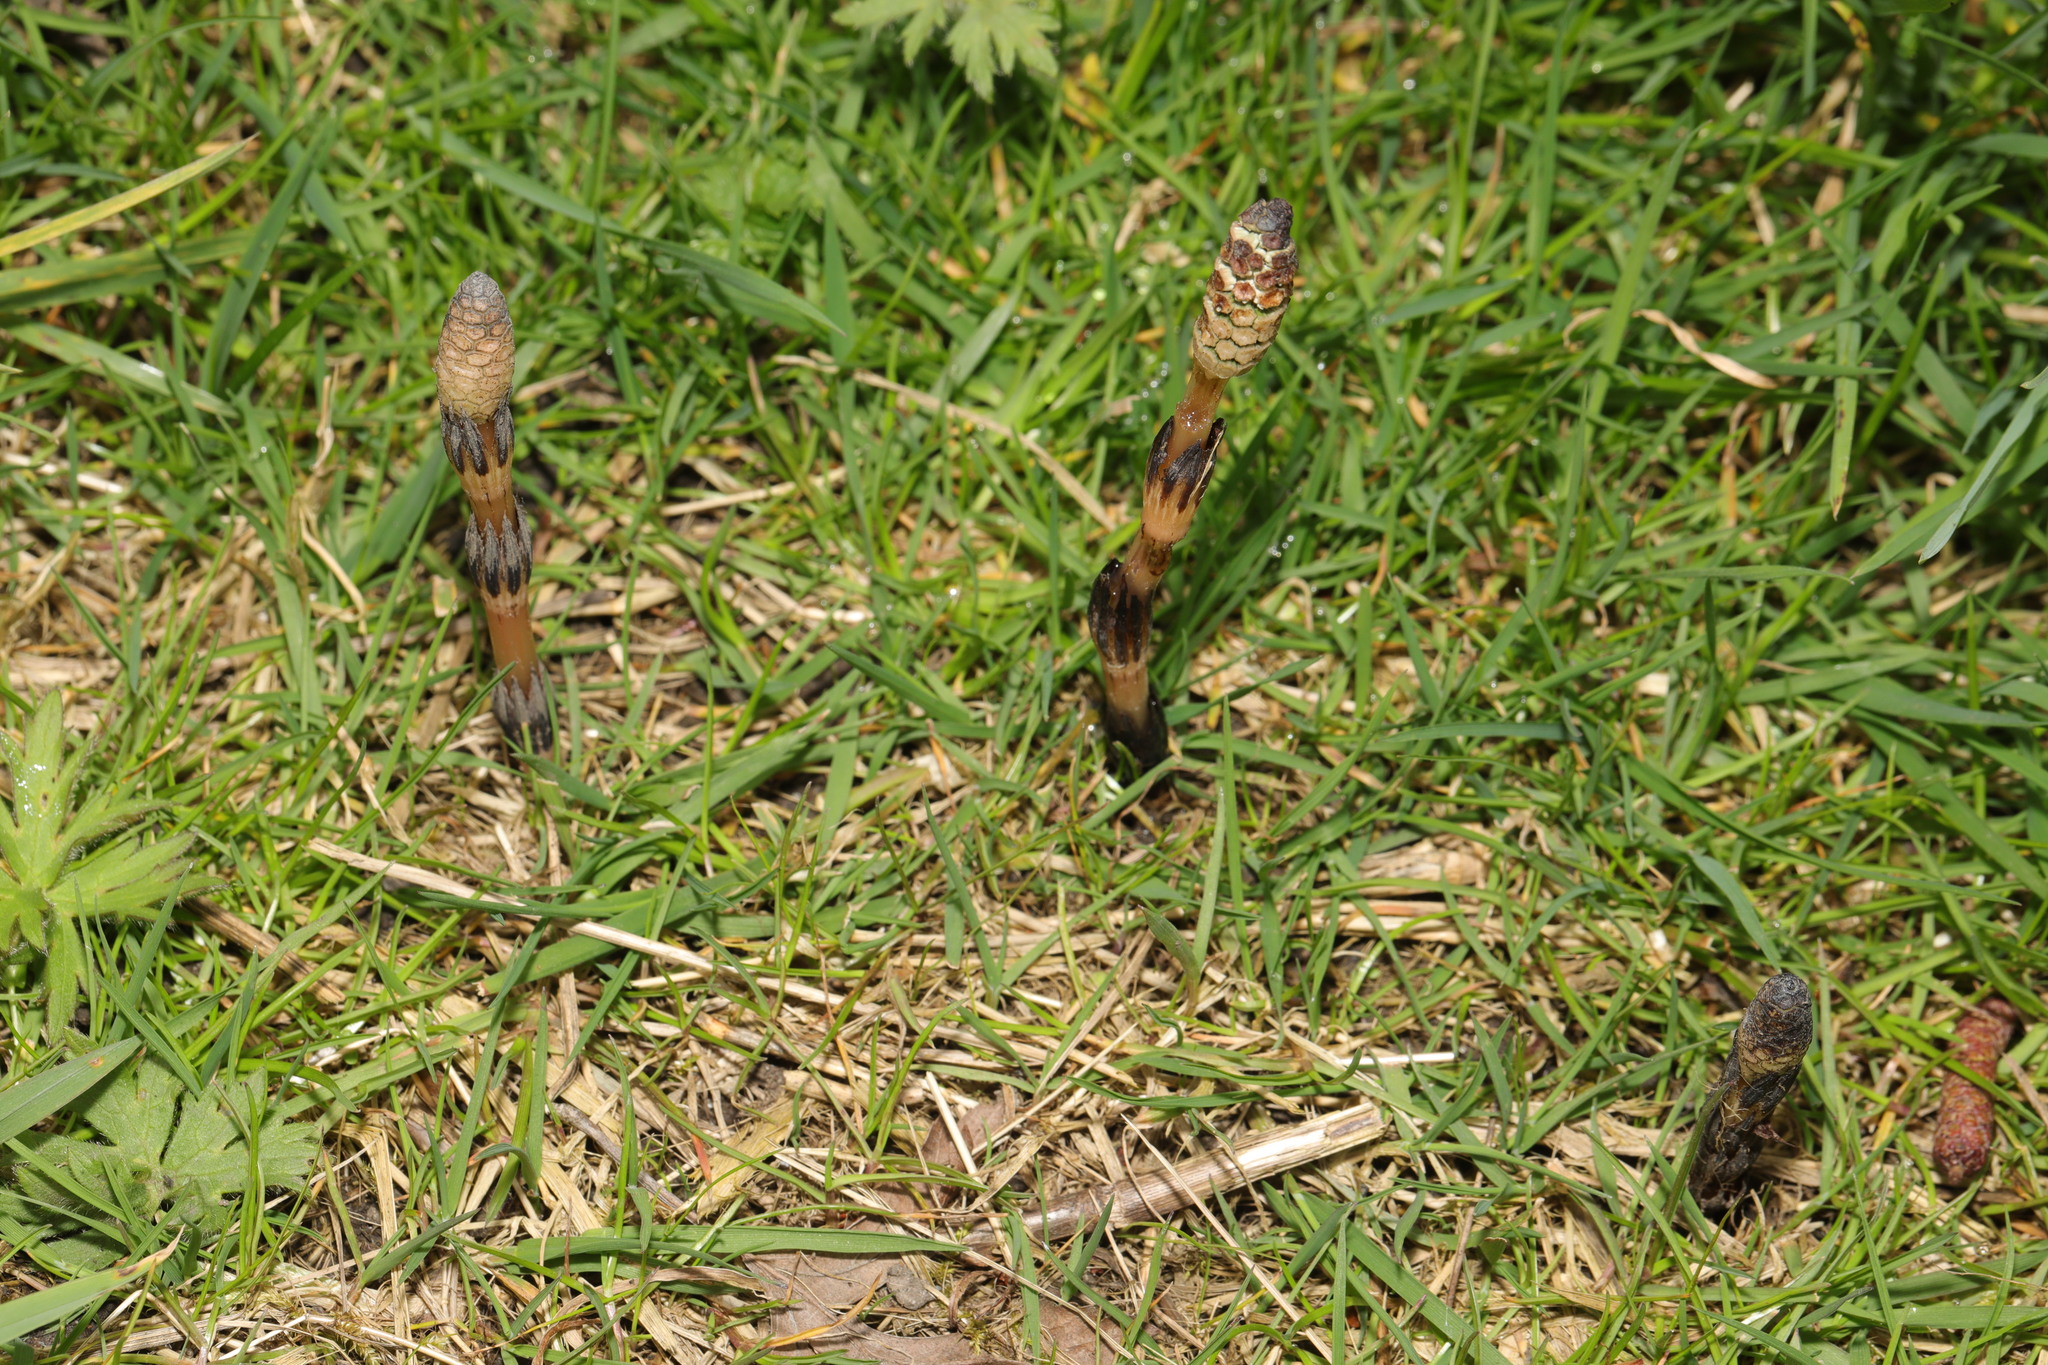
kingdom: Plantae
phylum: Tracheophyta
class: Polypodiopsida
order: Equisetales
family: Equisetaceae
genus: Equisetum
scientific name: Equisetum arvense
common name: Field horsetail
